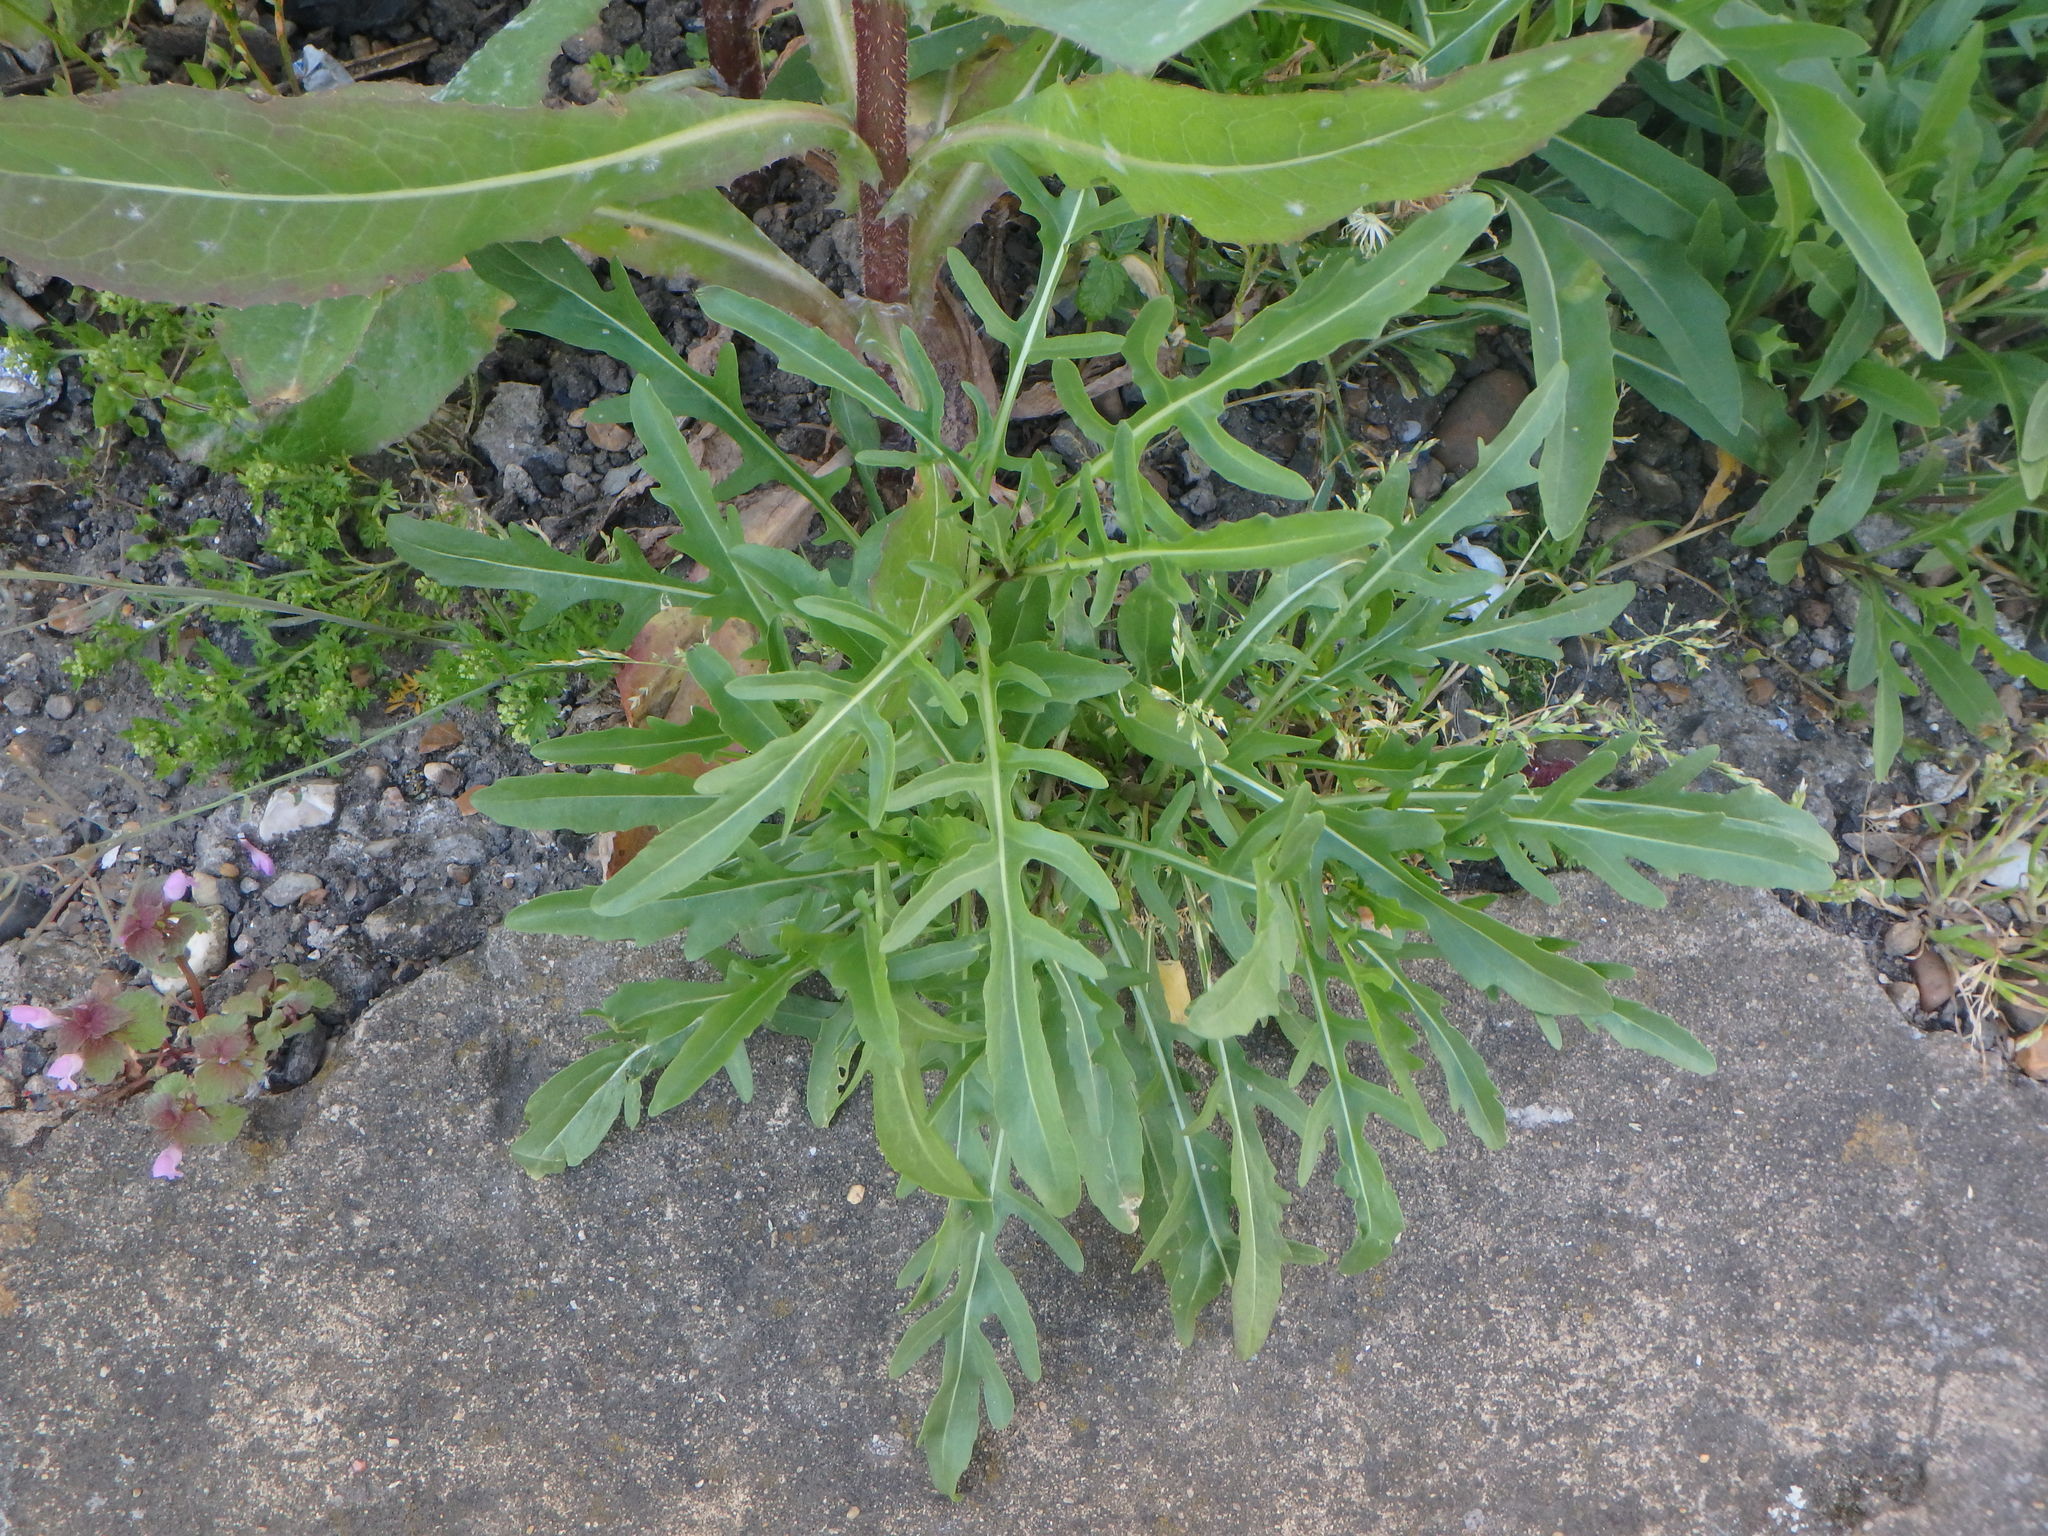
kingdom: Plantae
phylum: Tracheophyta
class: Magnoliopsida
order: Brassicales
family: Brassicaceae
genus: Diplotaxis
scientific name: Diplotaxis tenuifolia
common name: Perennial wall-rocket
